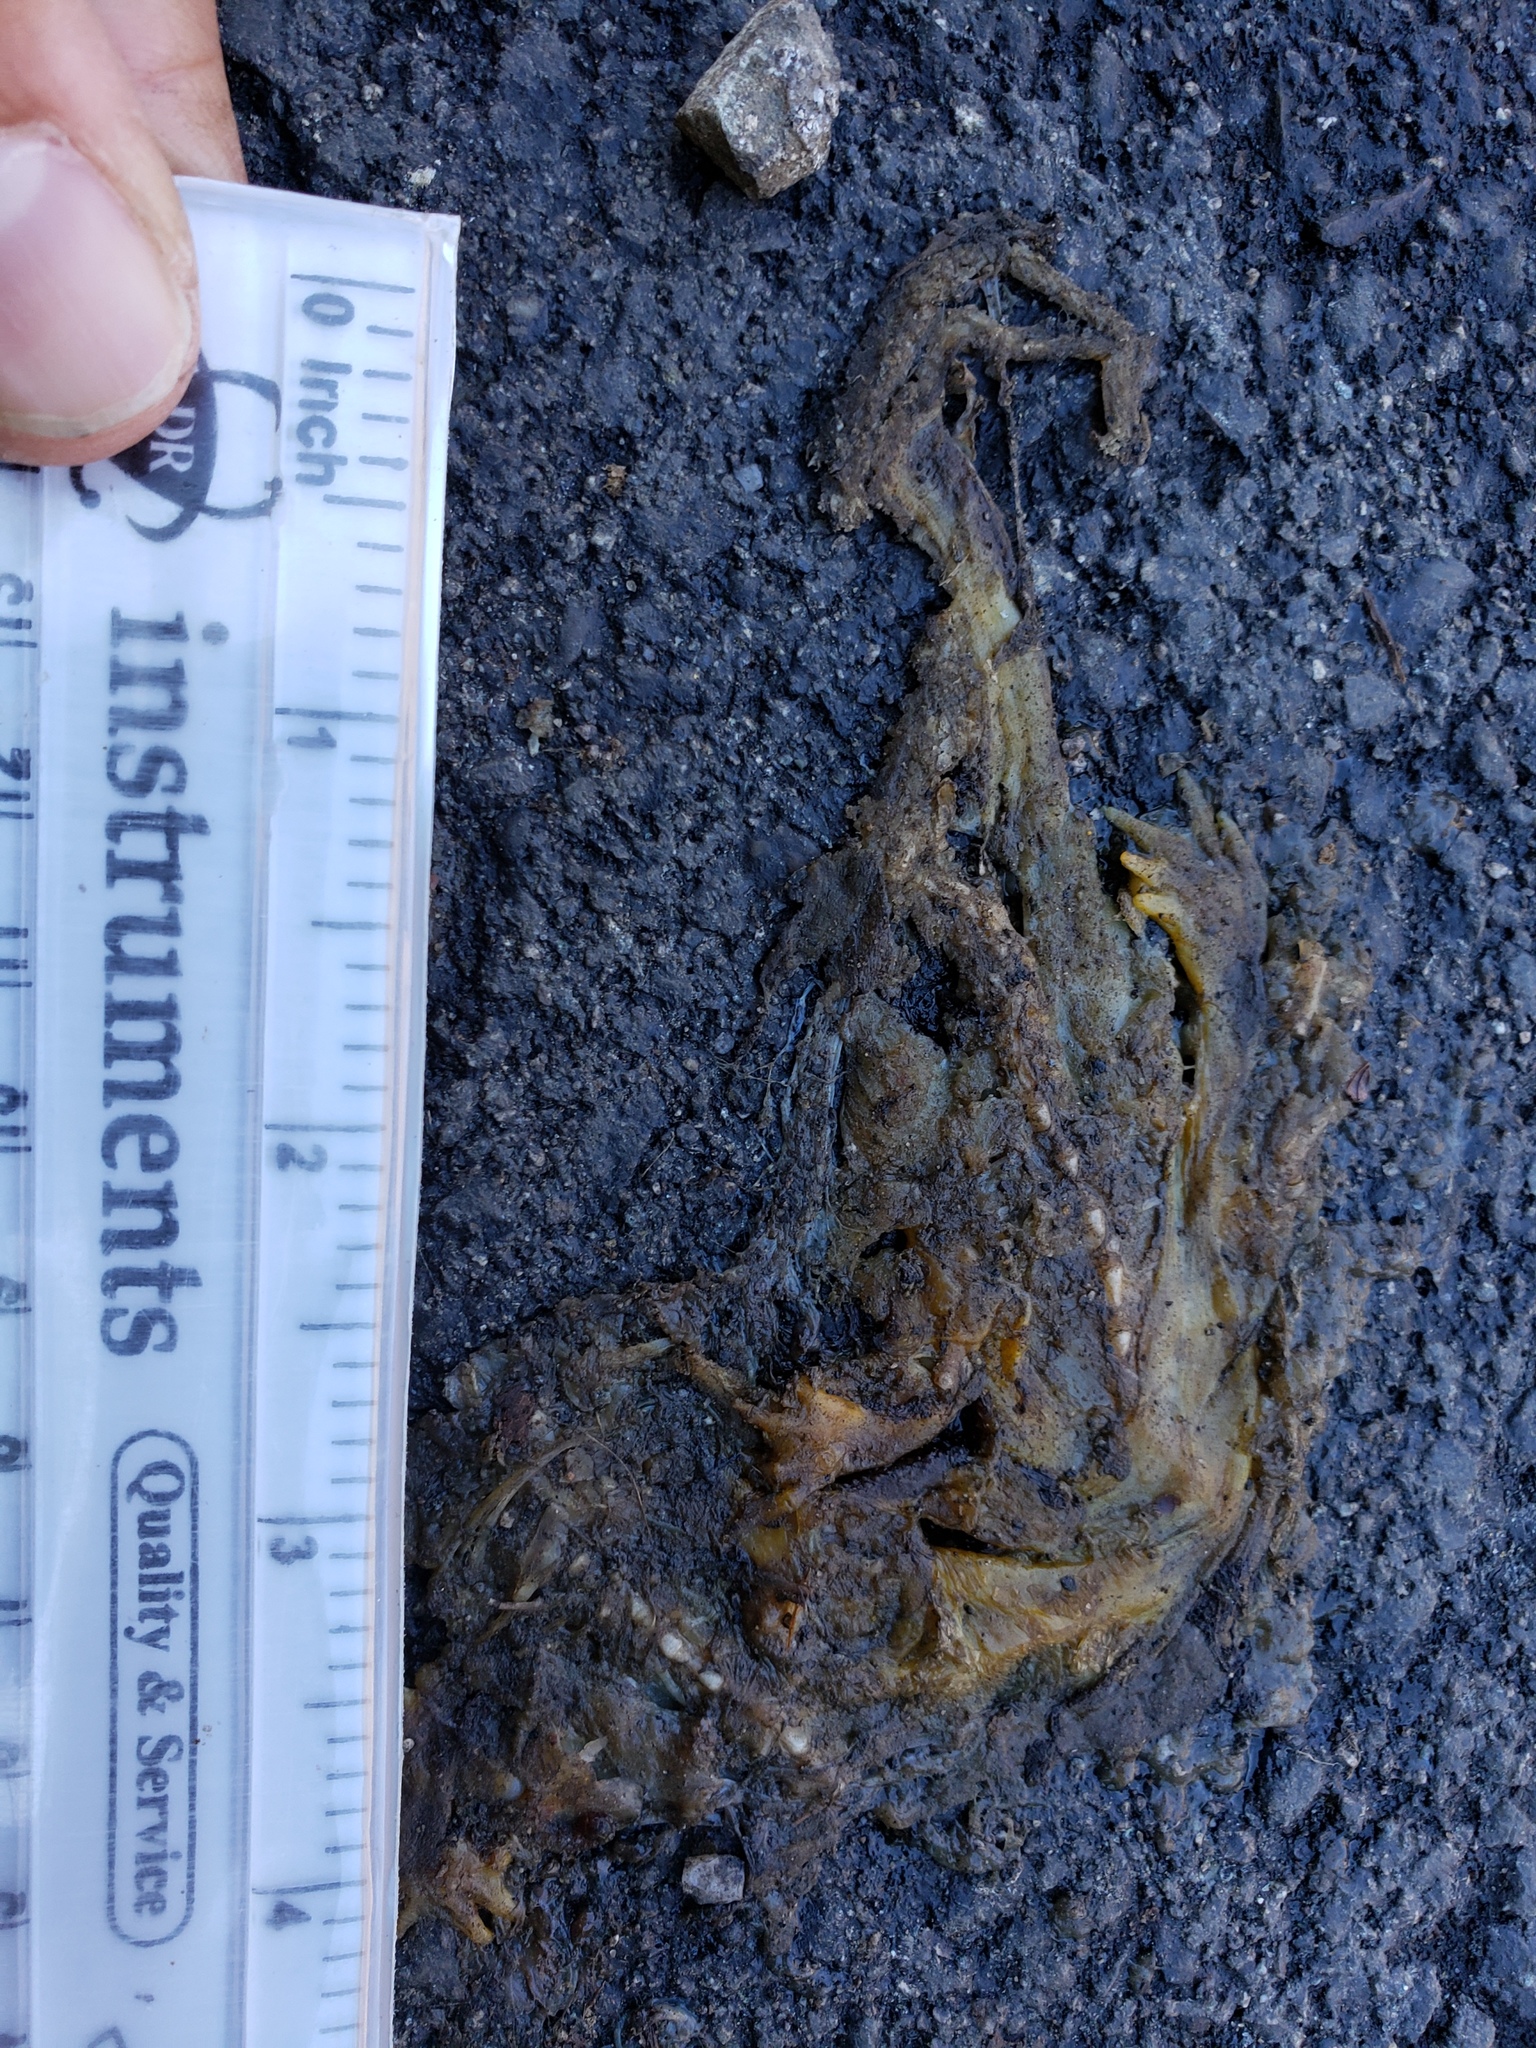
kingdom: Animalia
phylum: Chordata
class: Amphibia
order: Caudata
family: Salamandridae
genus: Taricha
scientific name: Taricha
